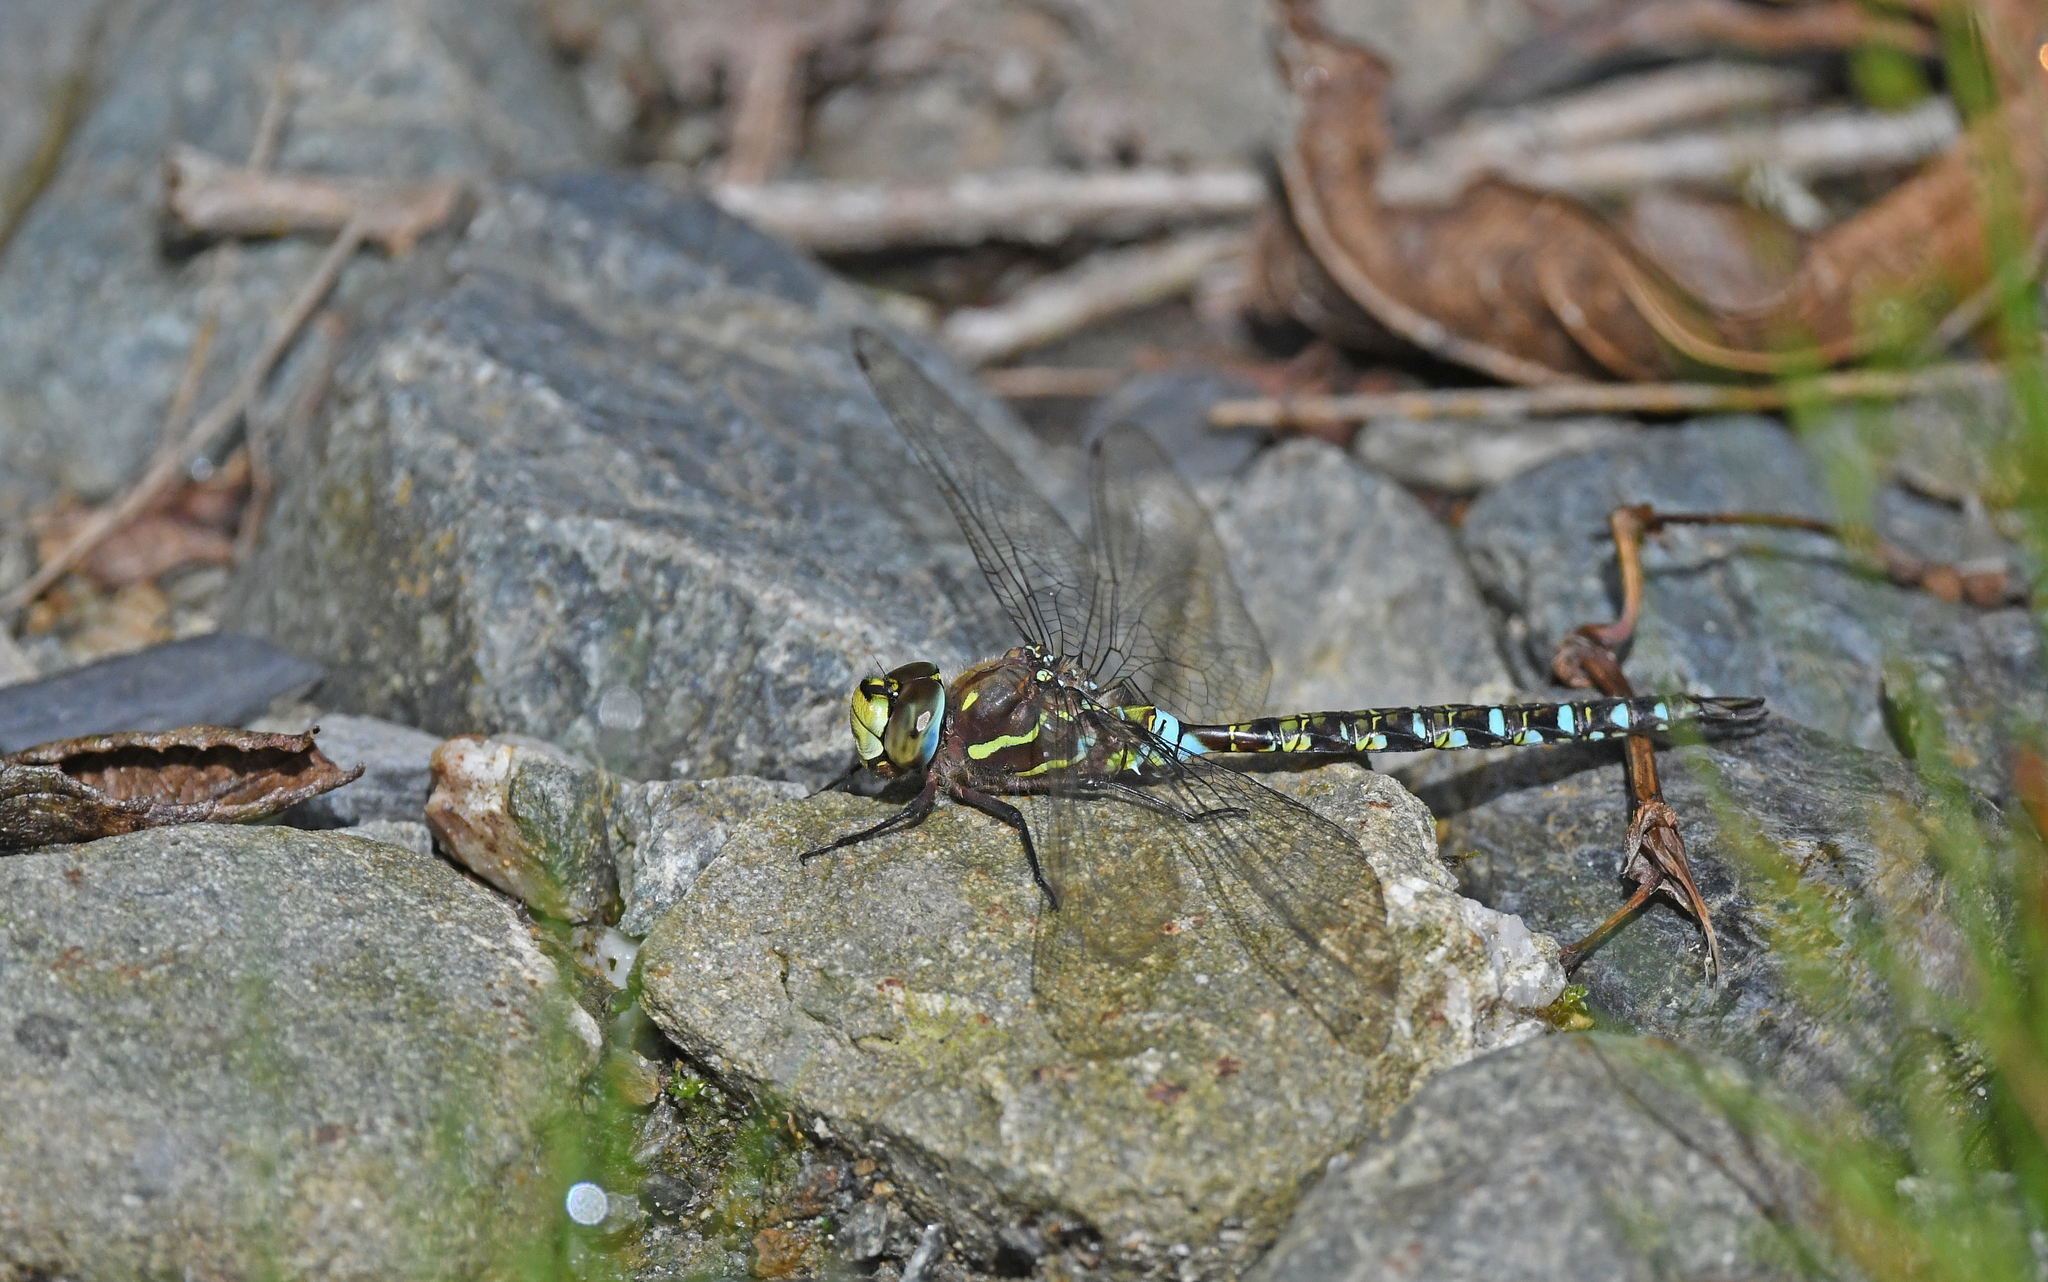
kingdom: Animalia
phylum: Arthropoda
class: Insecta
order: Odonata
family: Aeshnidae
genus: Rhionaeschna
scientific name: Rhionaeschna marchali
